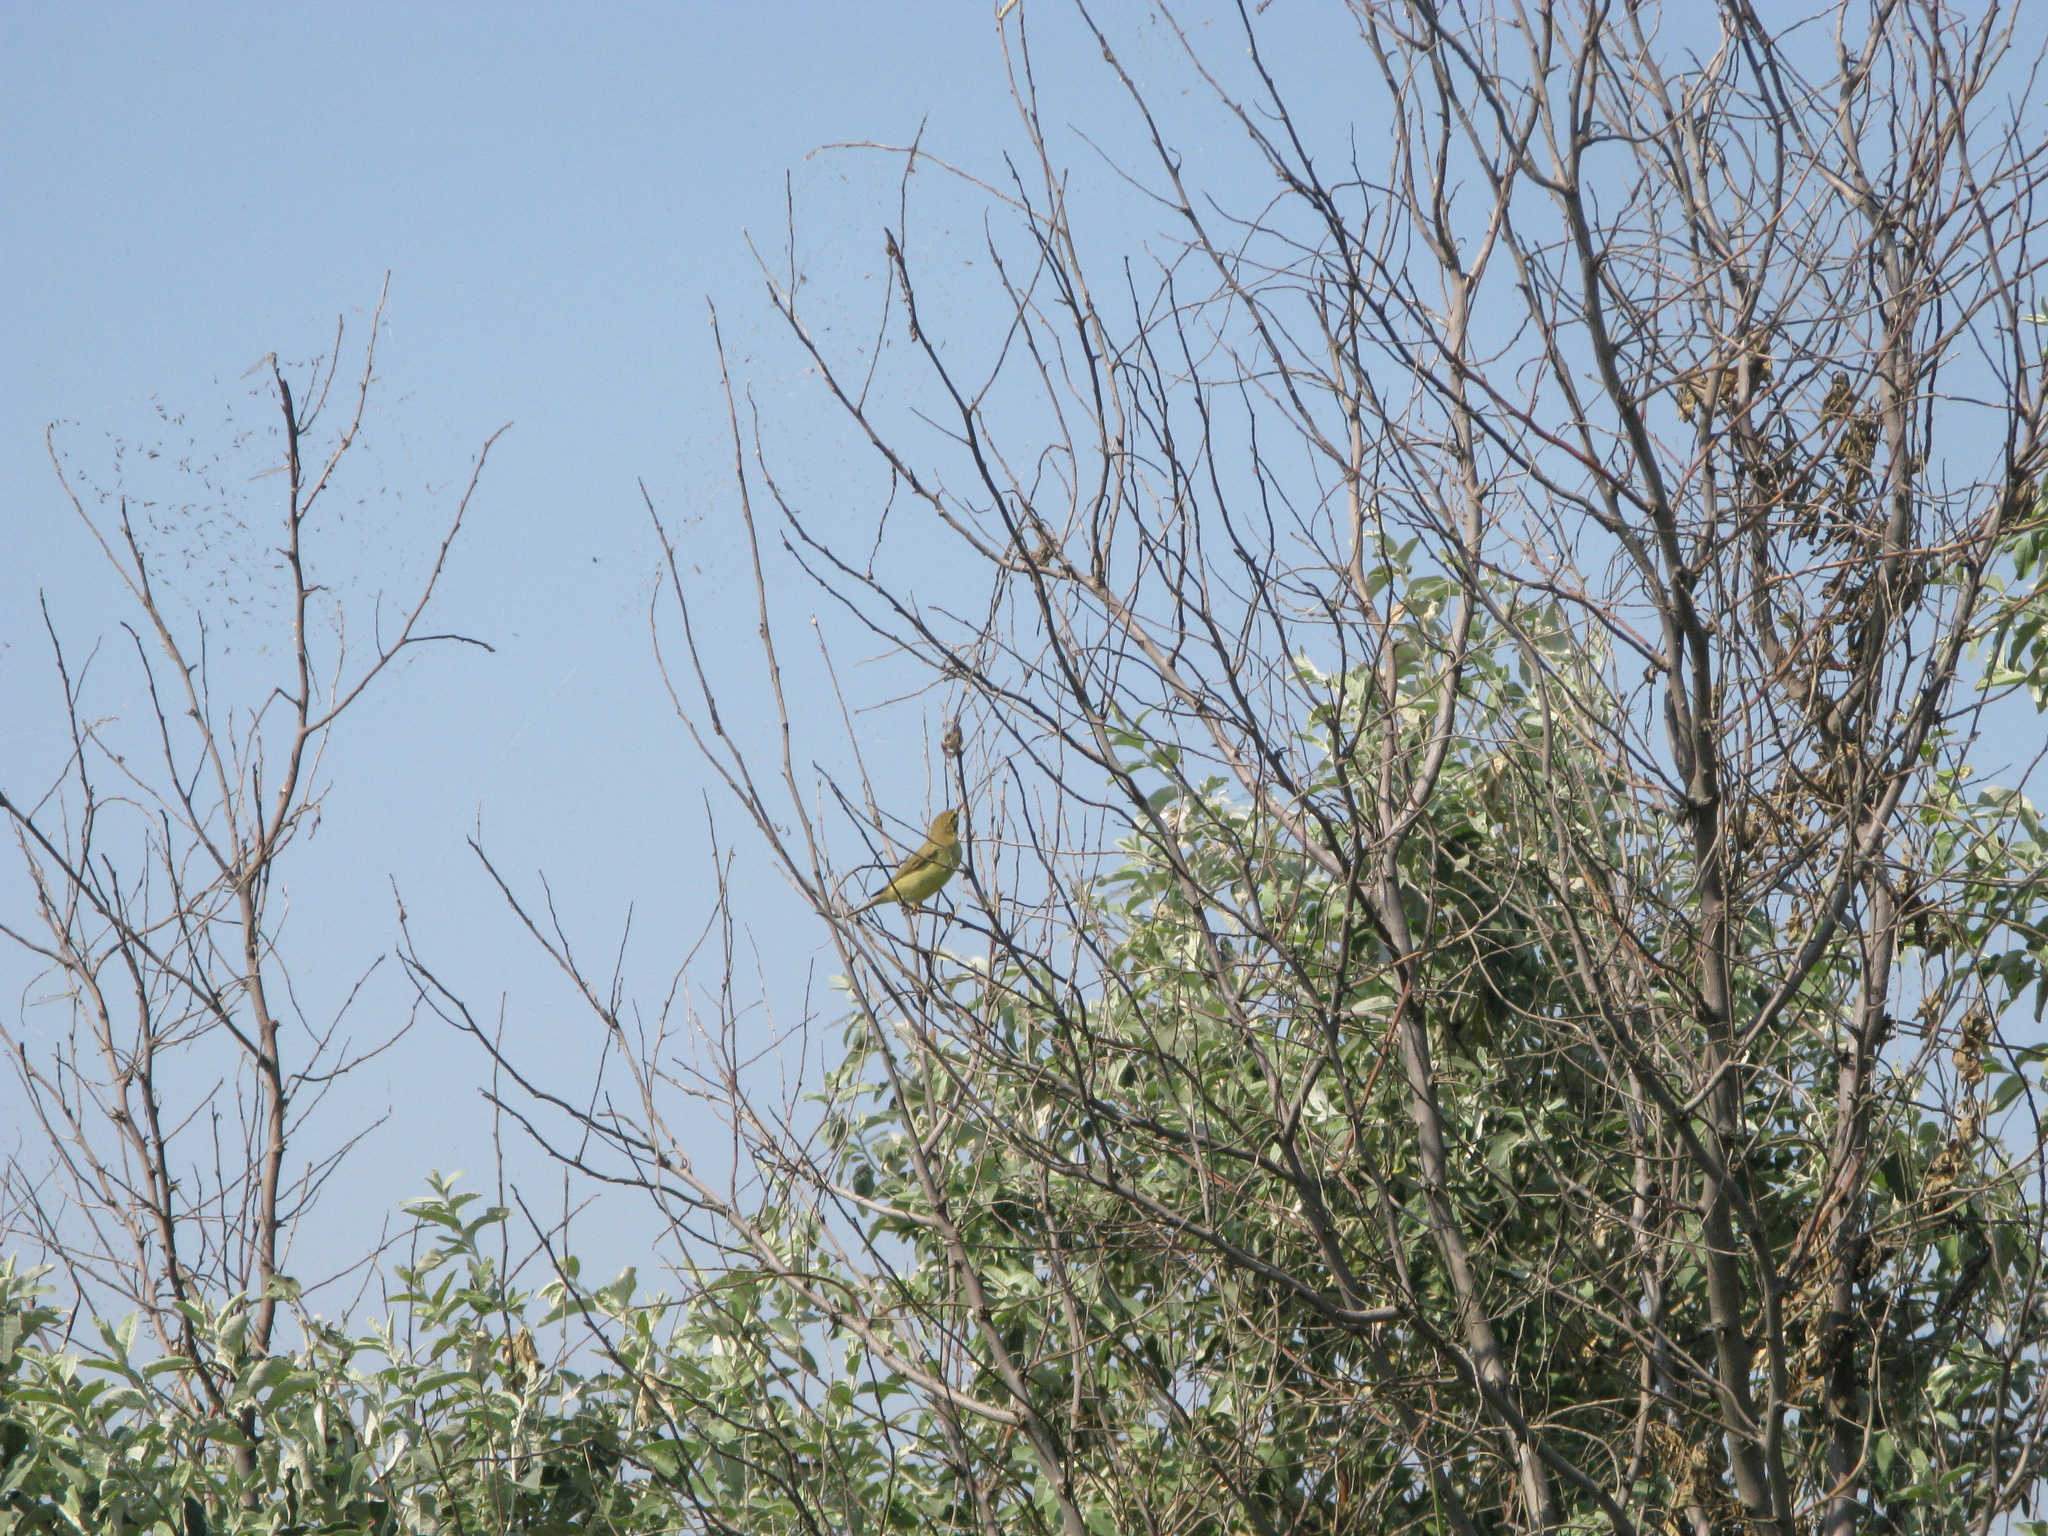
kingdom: Animalia
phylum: Chordata
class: Aves
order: Passeriformes
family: Phylloscopidae
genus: Phylloscopus
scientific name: Phylloscopus trochilus
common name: Willow warbler
